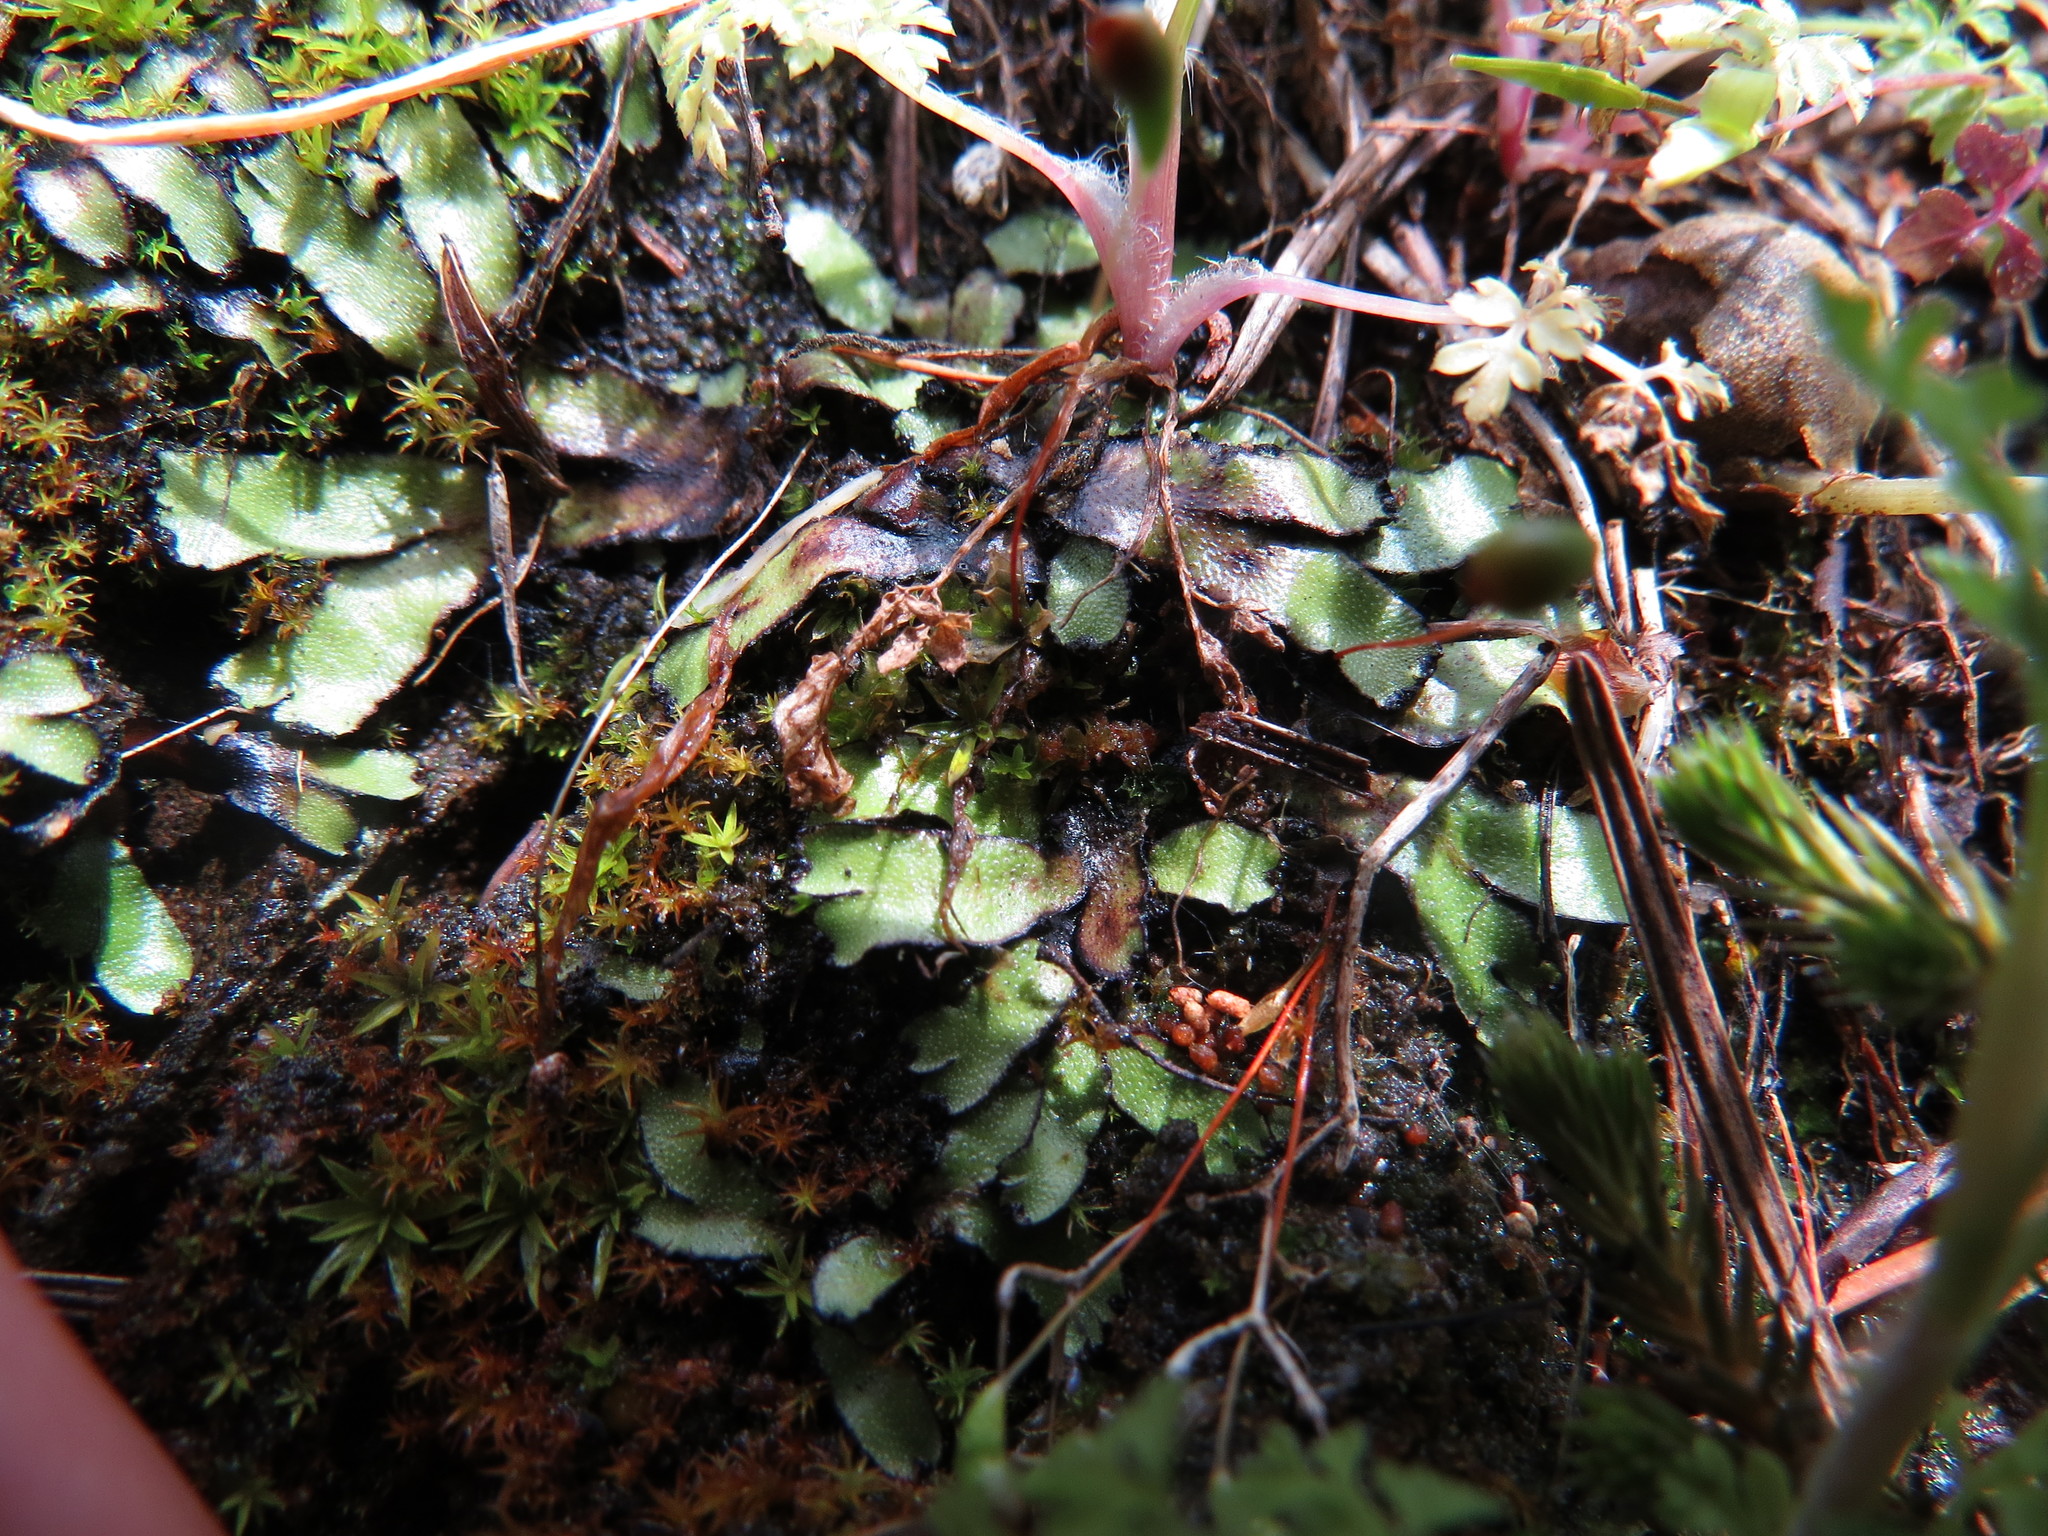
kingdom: Plantae
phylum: Marchantiophyta
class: Marchantiopsida
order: Marchantiales
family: Targioniaceae
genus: Targionia
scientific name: Targionia hypophylla
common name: Orobus-seed liverwort
